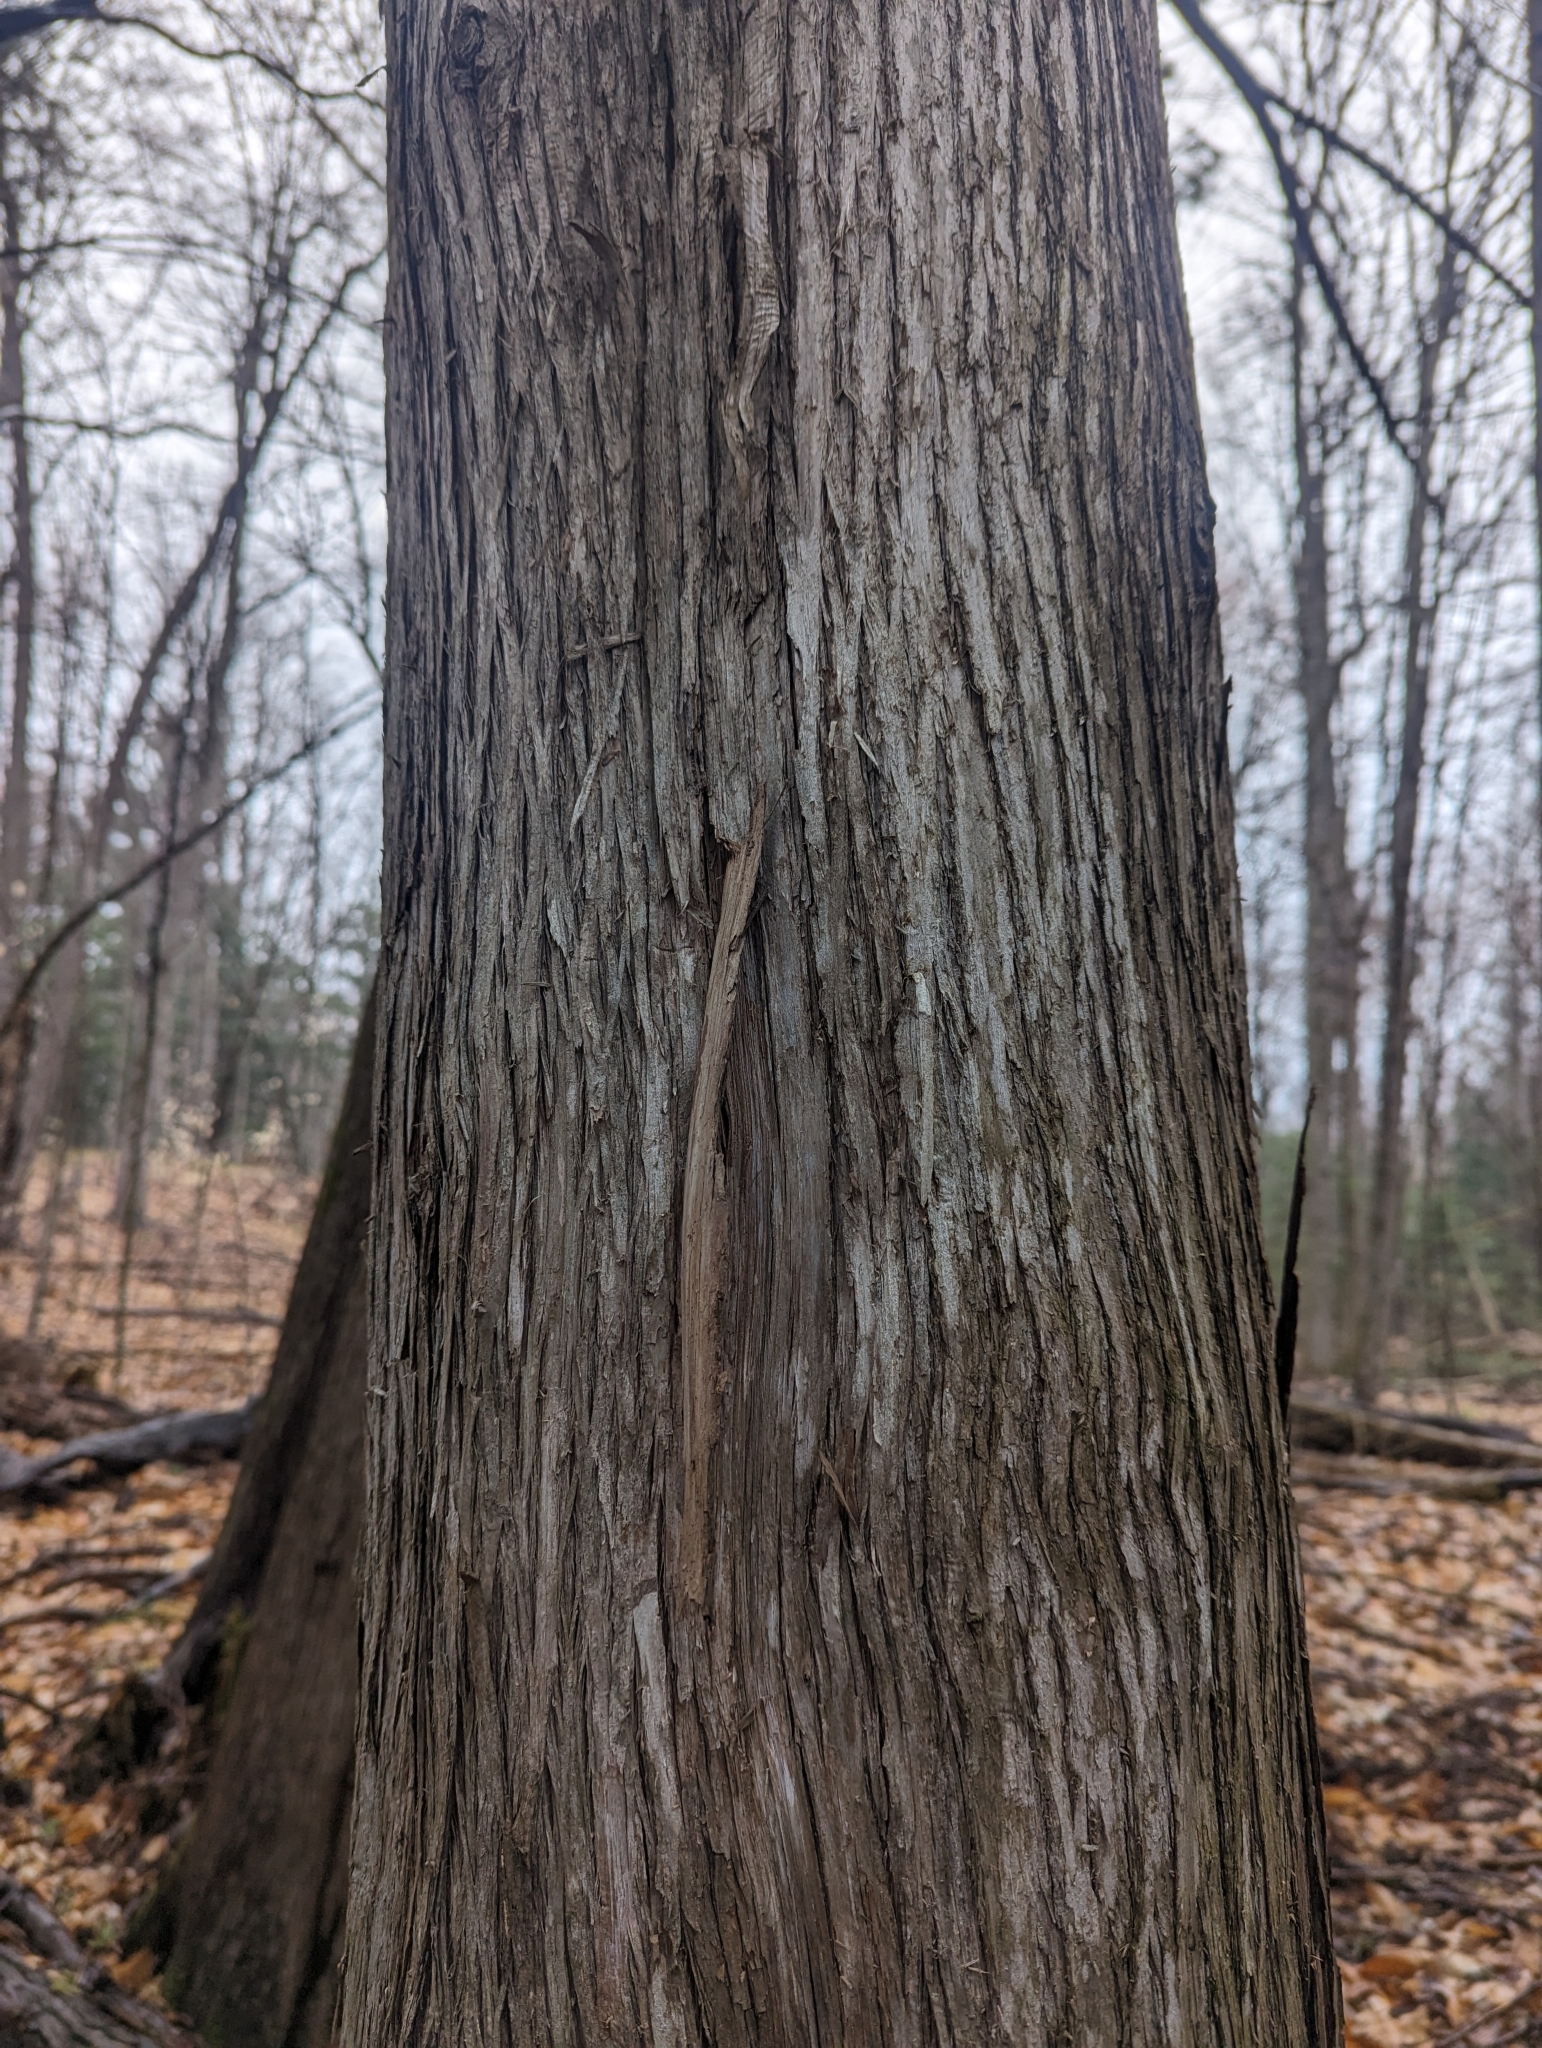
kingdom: Plantae
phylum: Tracheophyta
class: Pinopsida
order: Pinales
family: Cupressaceae
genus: Thuja
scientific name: Thuja occidentalis
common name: Northern white-cedar
